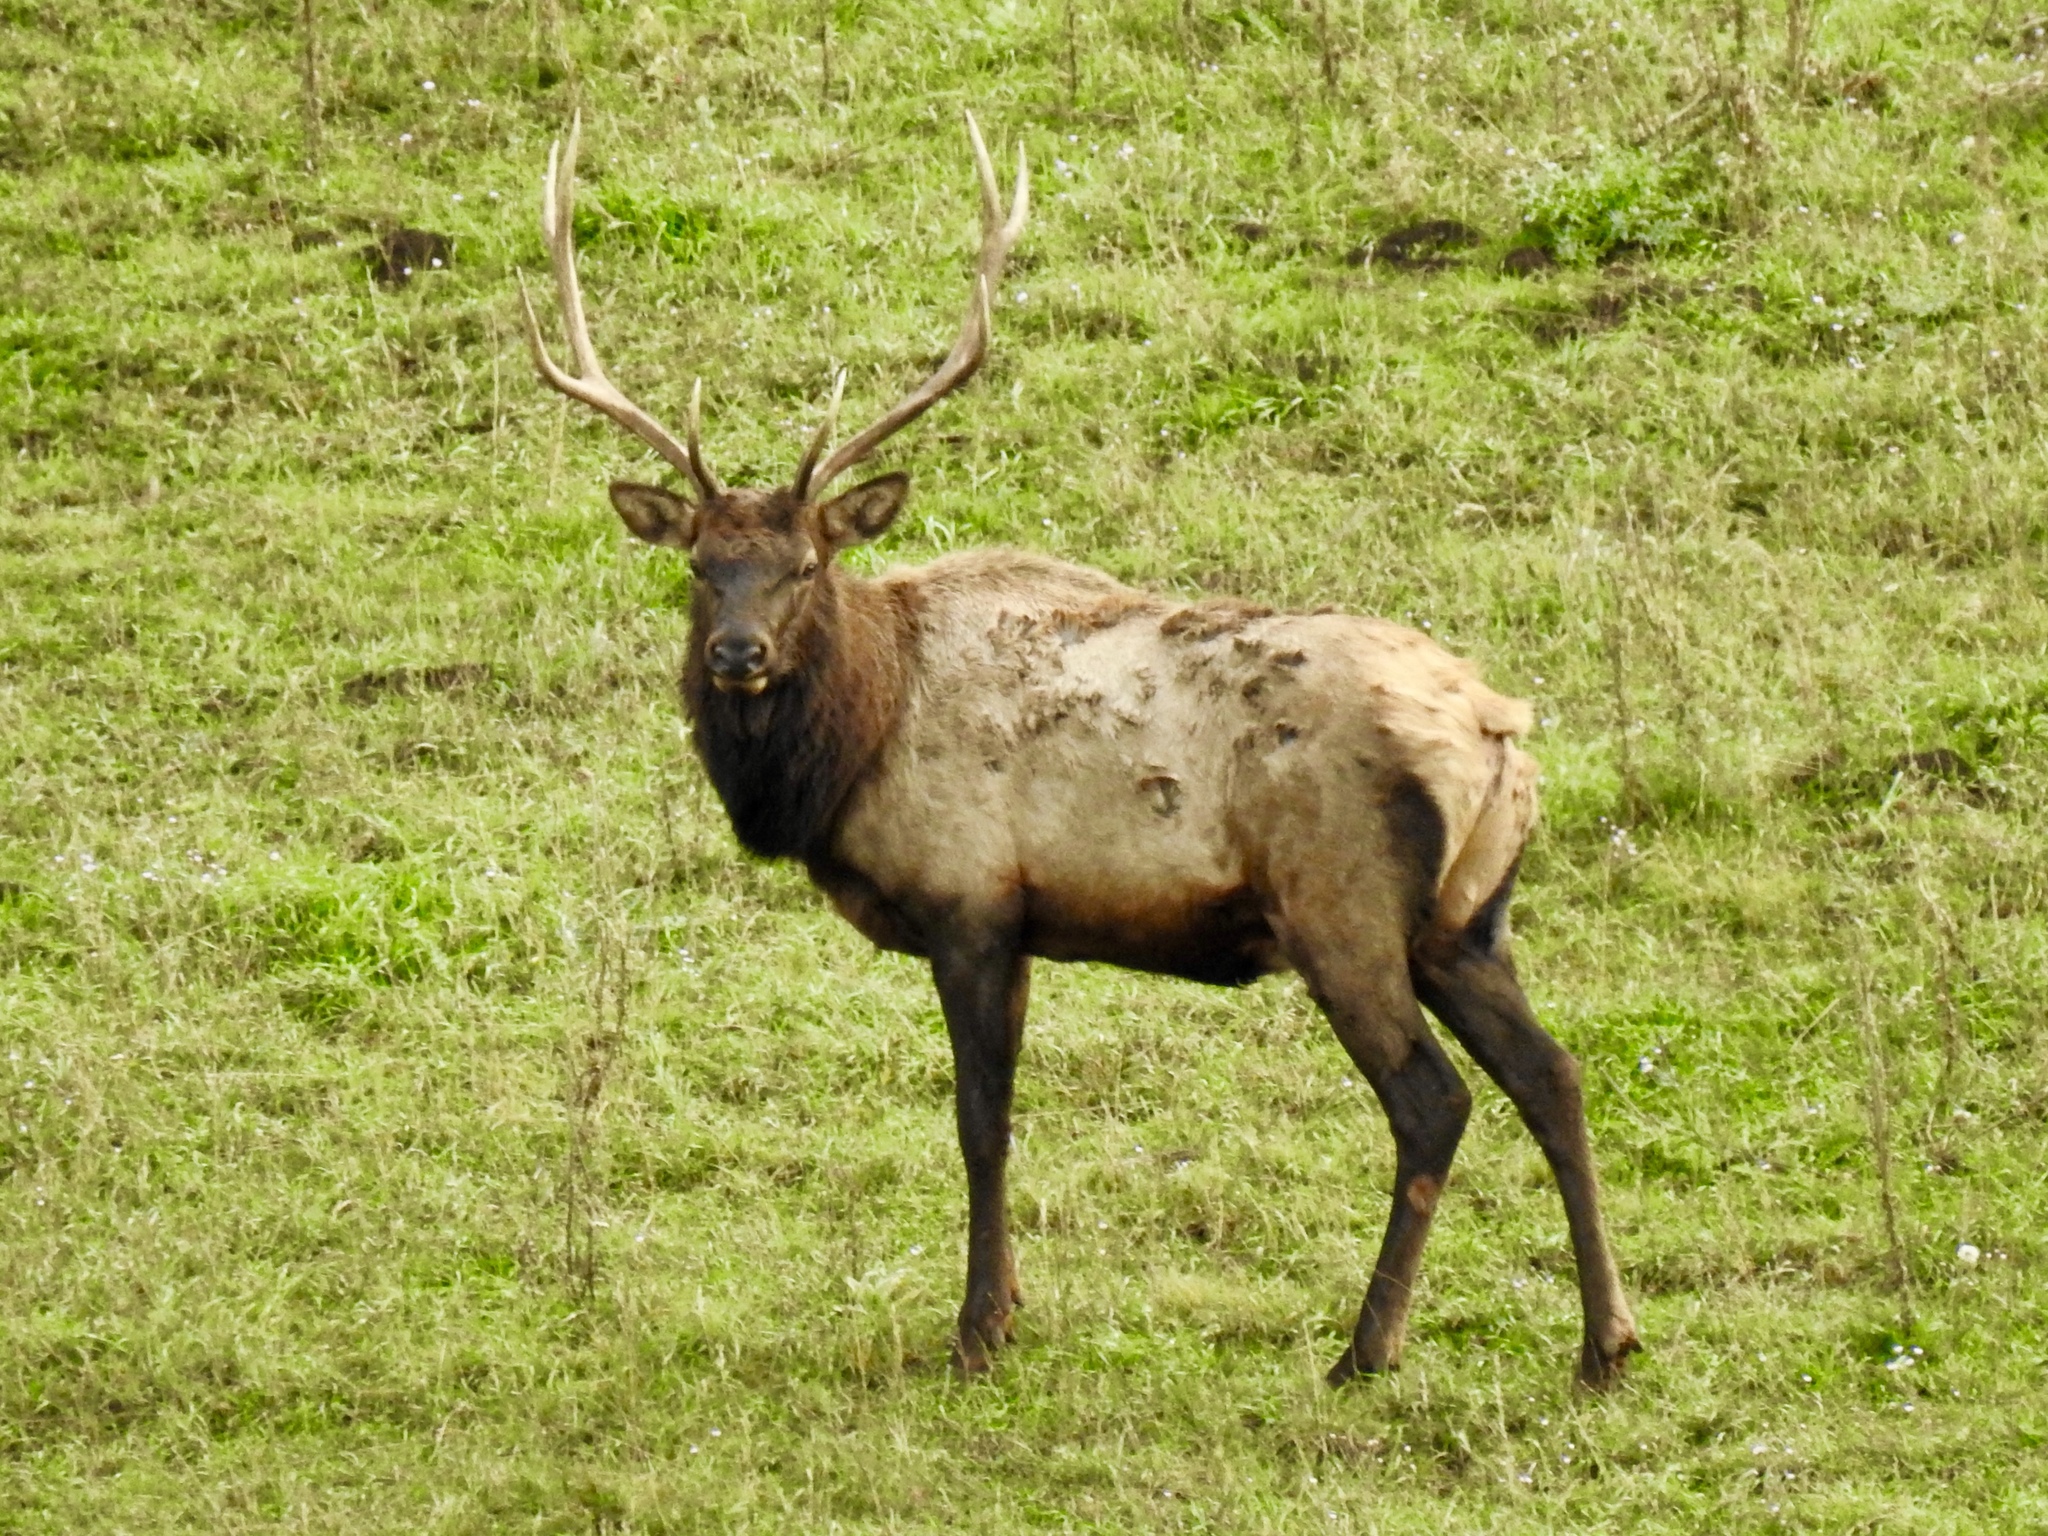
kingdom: Animalia
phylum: Chordata
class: Mammalia
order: Artiodactyla
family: Cervidae
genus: Cervus
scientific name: Cervus elaphus
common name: Red deer
